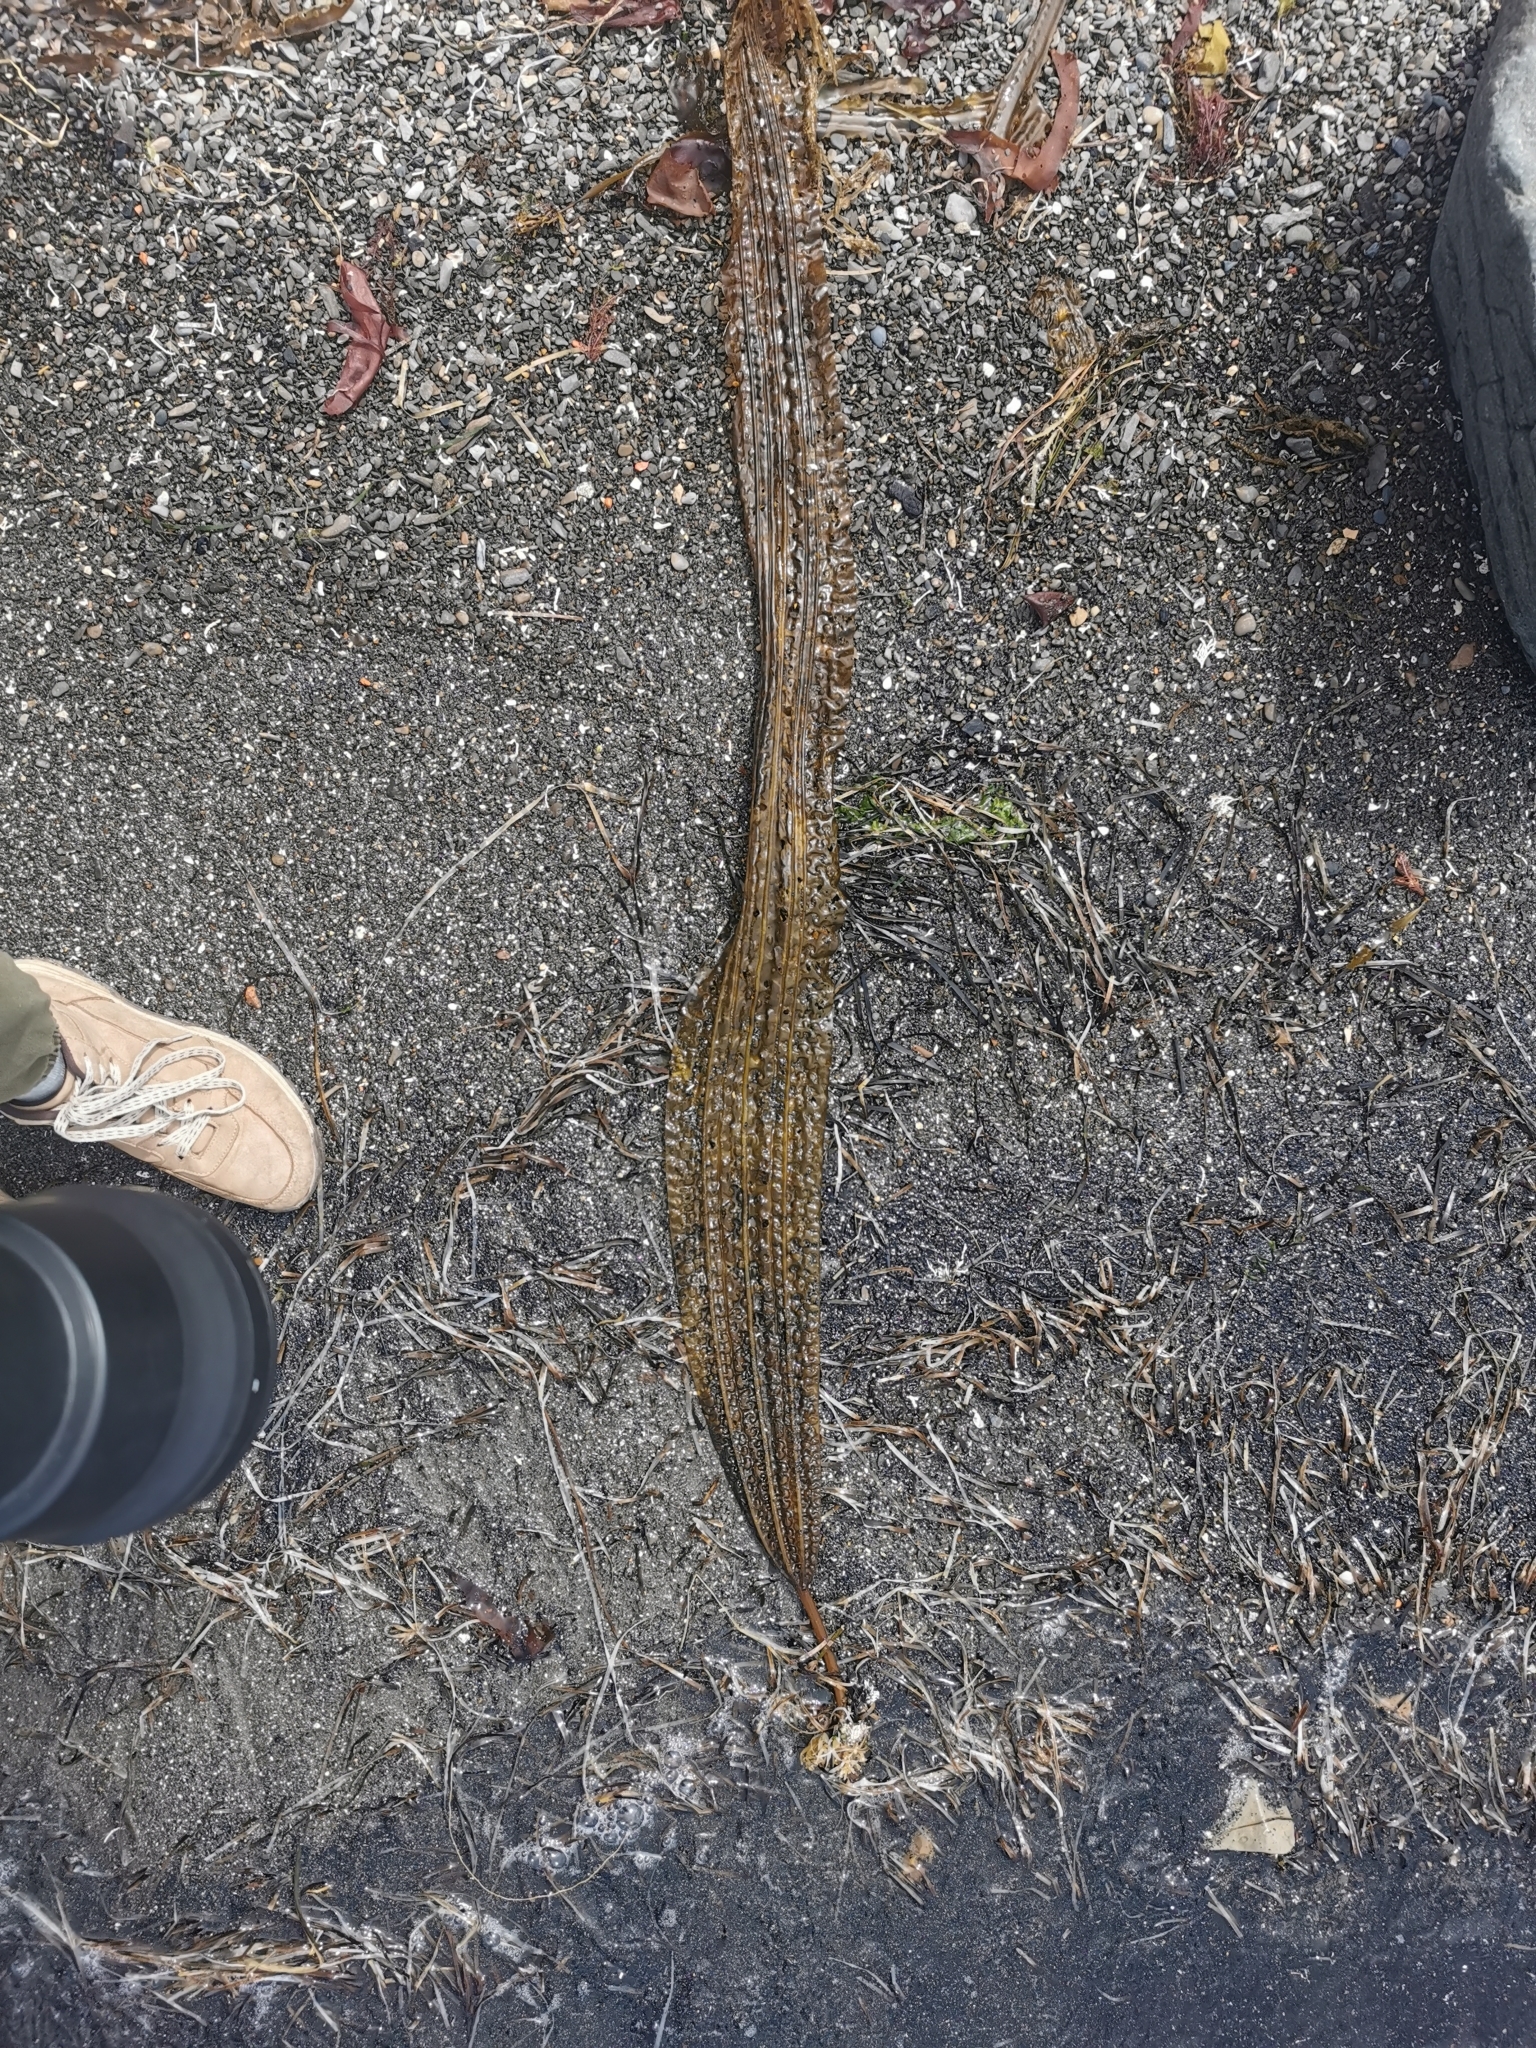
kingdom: Chromista
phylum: Ochrophyta
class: Phaeophyceae
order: Laminariales
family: Costariaceae
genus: Costaria
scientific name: Costaria costata
